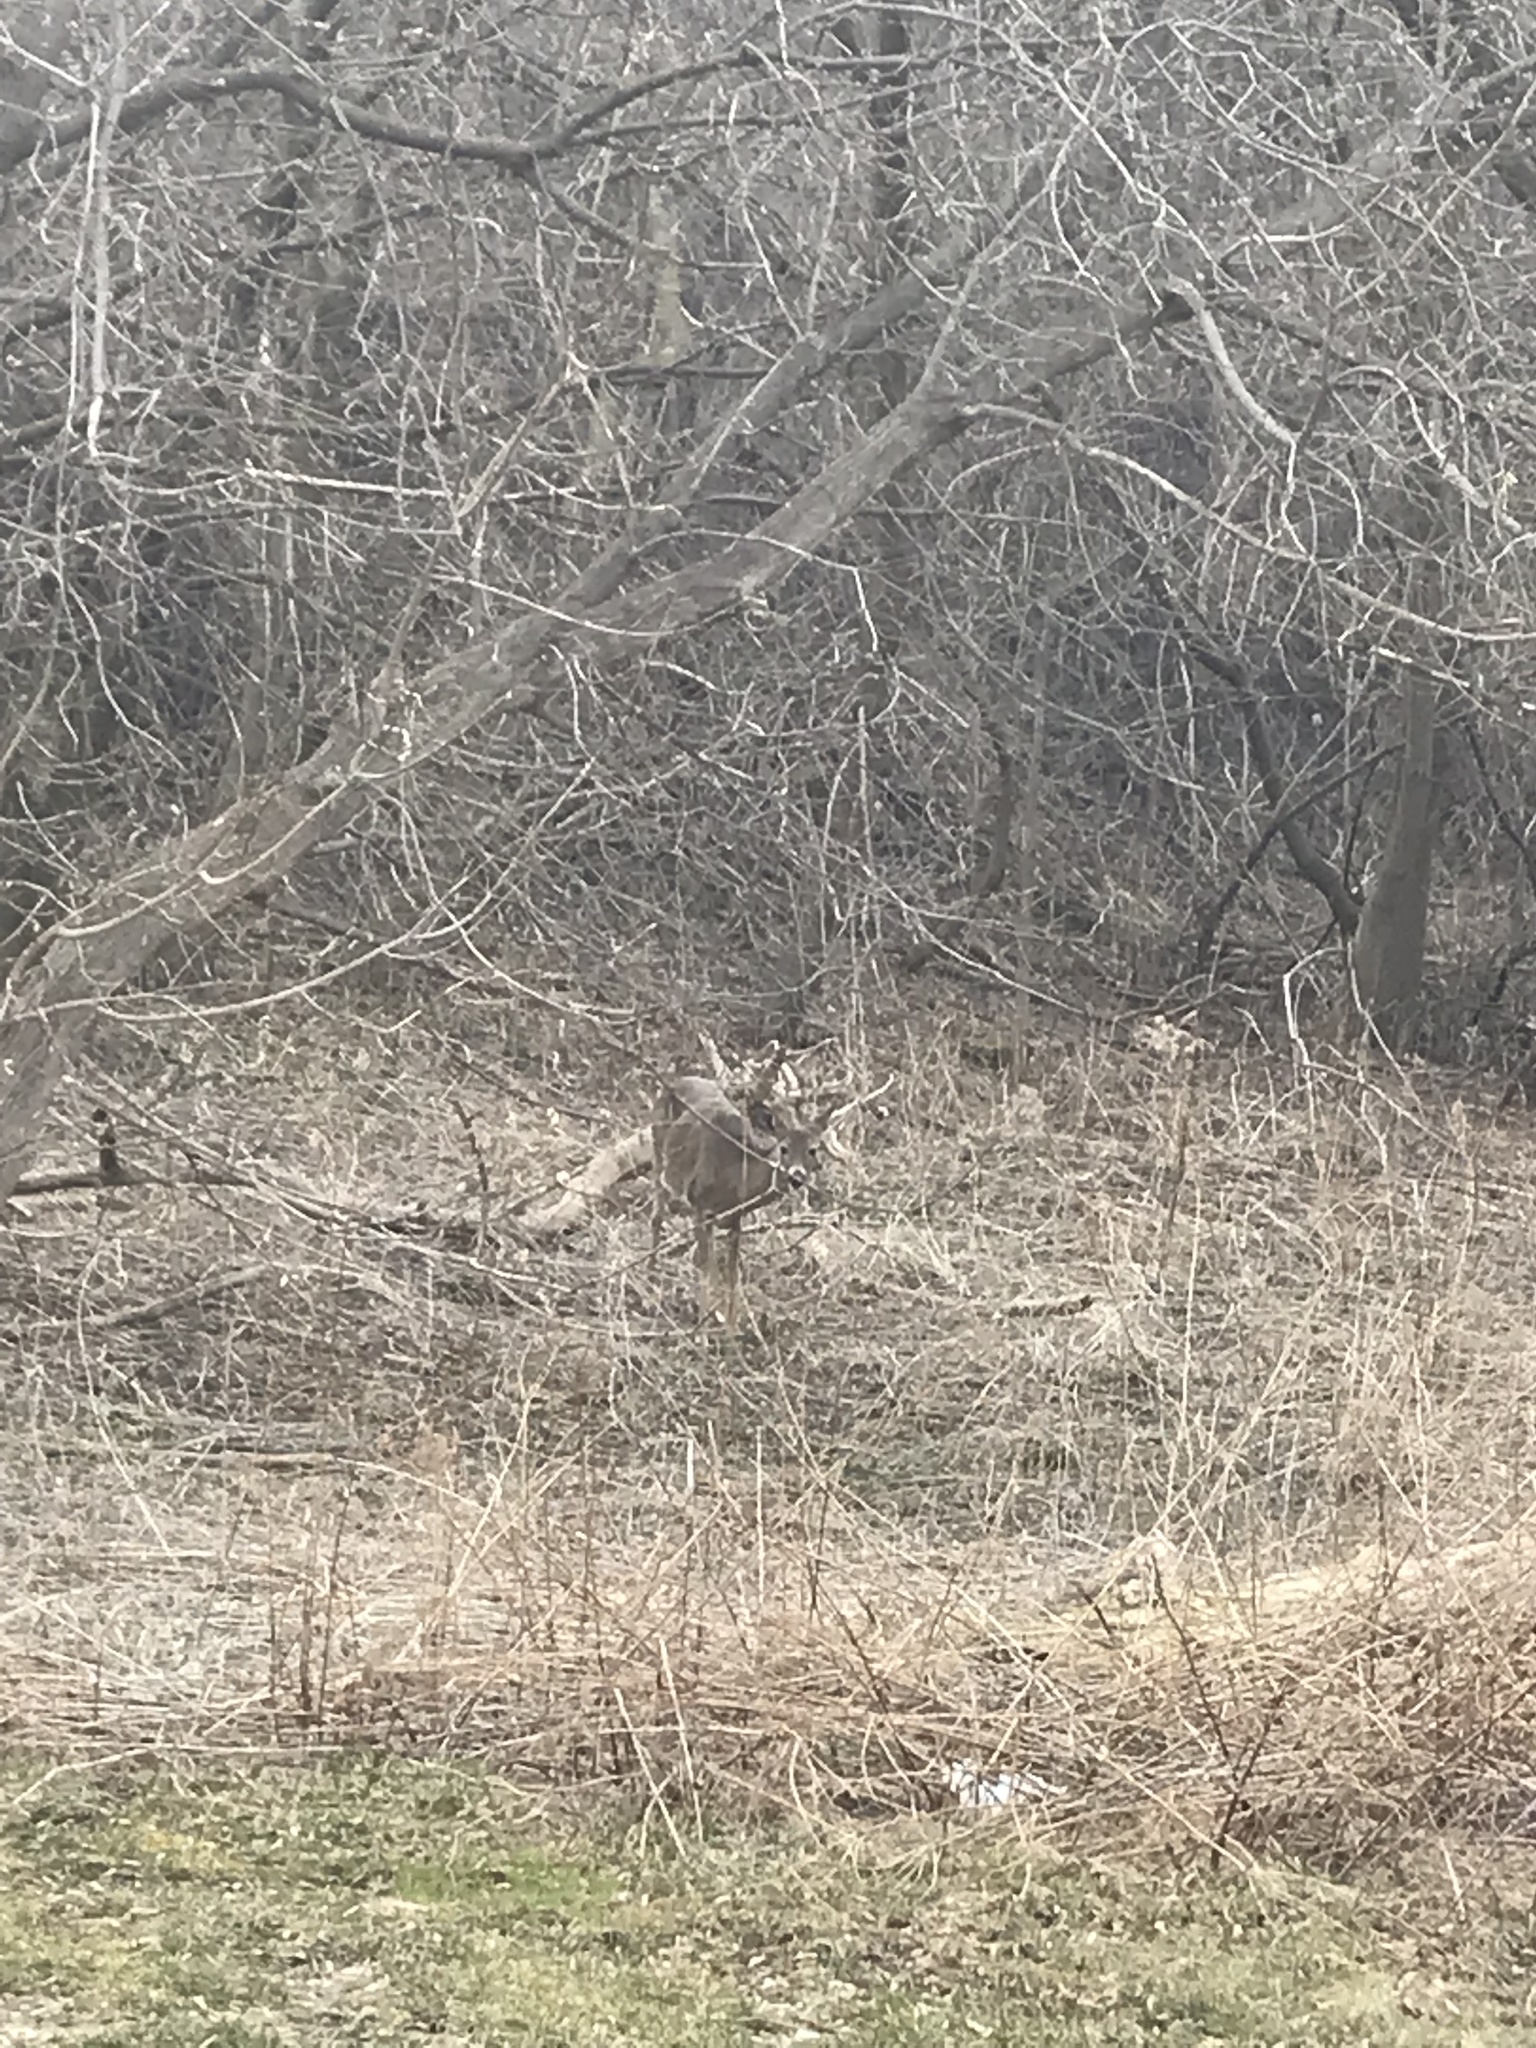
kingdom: Animalia
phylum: Chordata
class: Mammalia
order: Artiodactyla
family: Cervidae
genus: Odocoileus
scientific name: Odocoileus virginianus
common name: White-tailed deer
